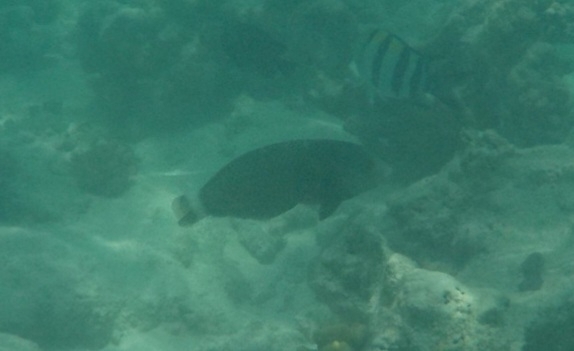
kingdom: Animalia
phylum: Chordata
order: Perciformes
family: Labridae
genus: Novaculichthys
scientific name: Novaculichthys taeniourus
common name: Rockmover wrasse
